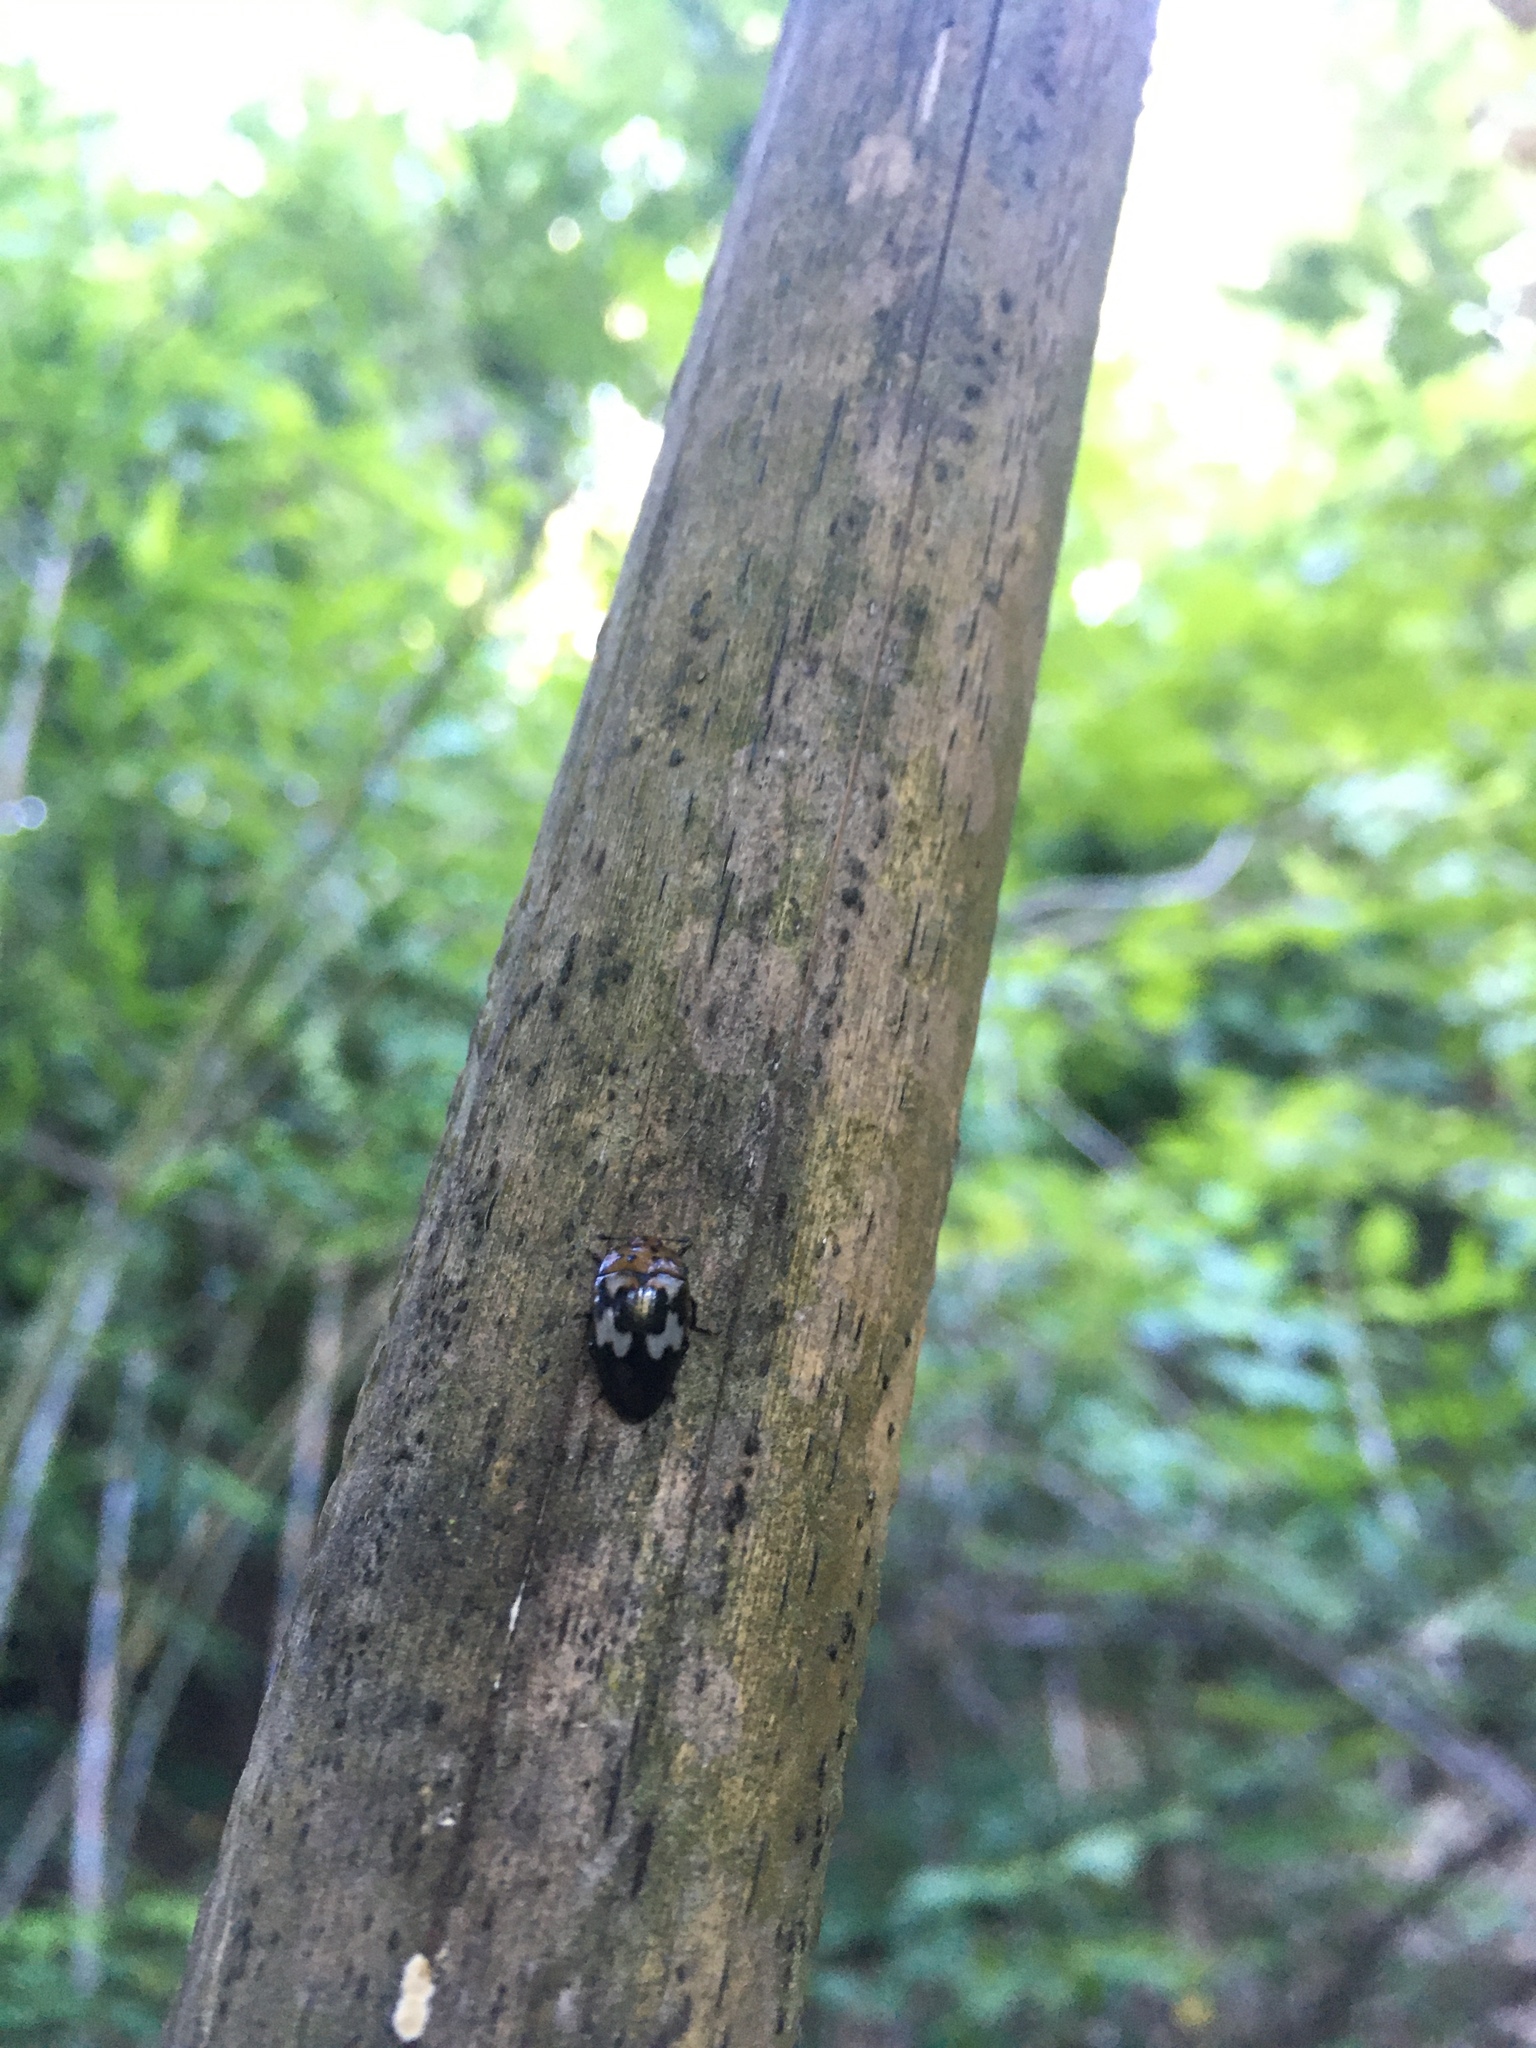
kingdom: Animalia
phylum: Arthropoda
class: Insecta
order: Coleoptera
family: Erotylidae
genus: Iphiclus
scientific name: Iphiclus
